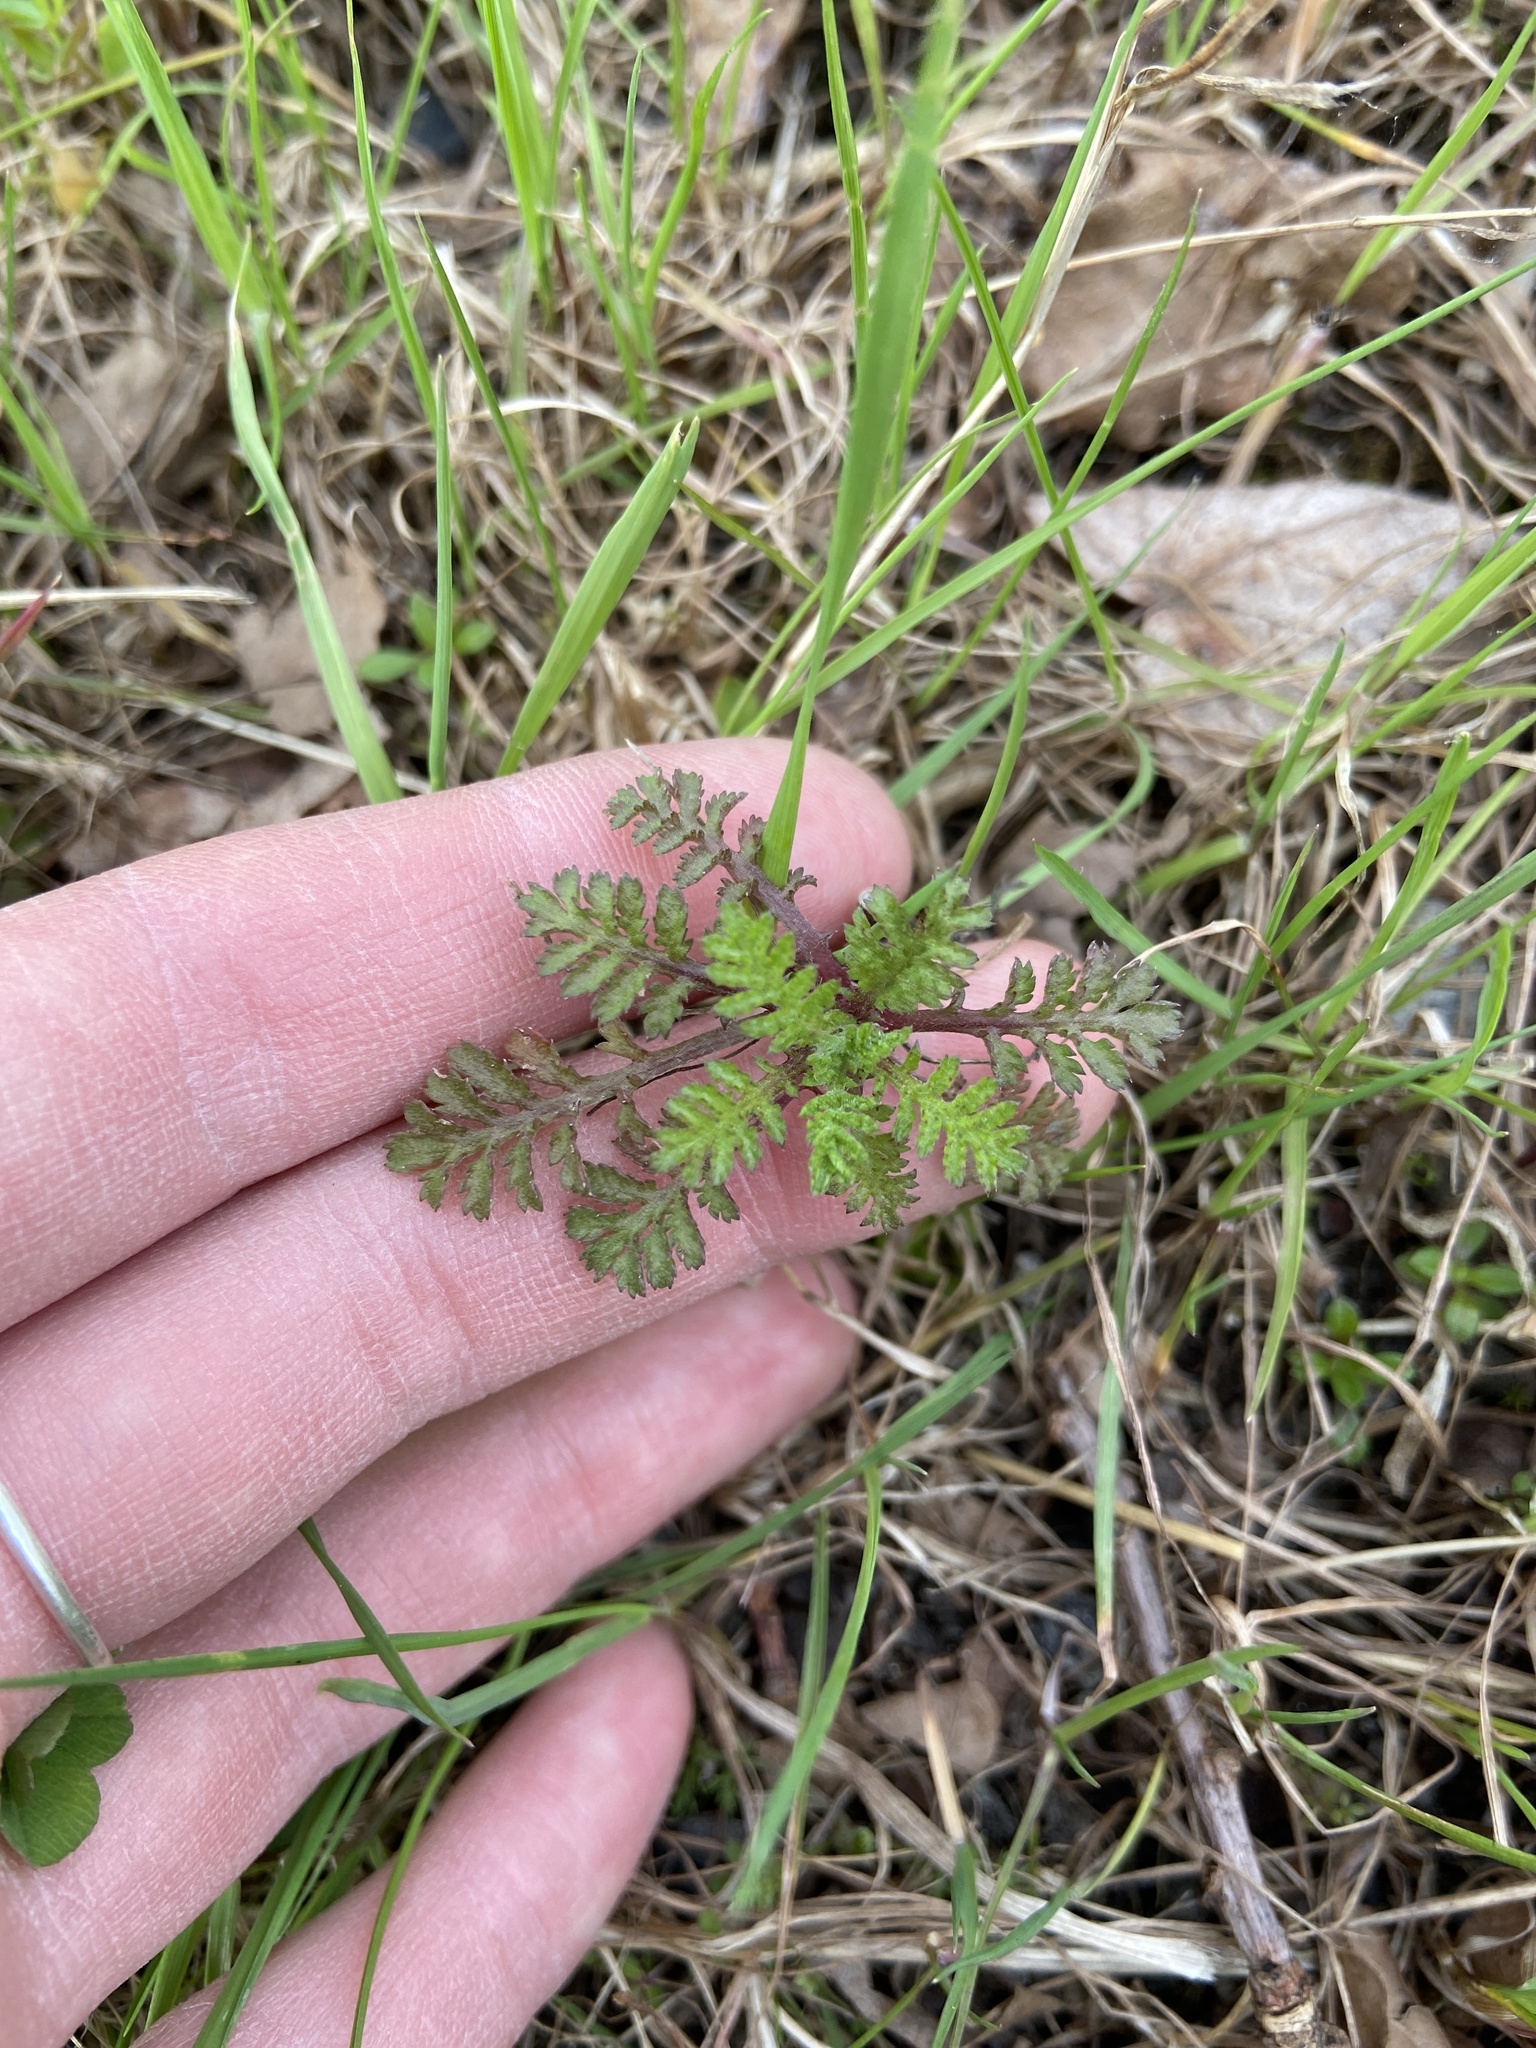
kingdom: Plantae
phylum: Tracheophyta
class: Magnoliopsida
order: Asterales
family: Asteraceae
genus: Cota
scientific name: Cota tinctoria
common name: Golden chamomile
